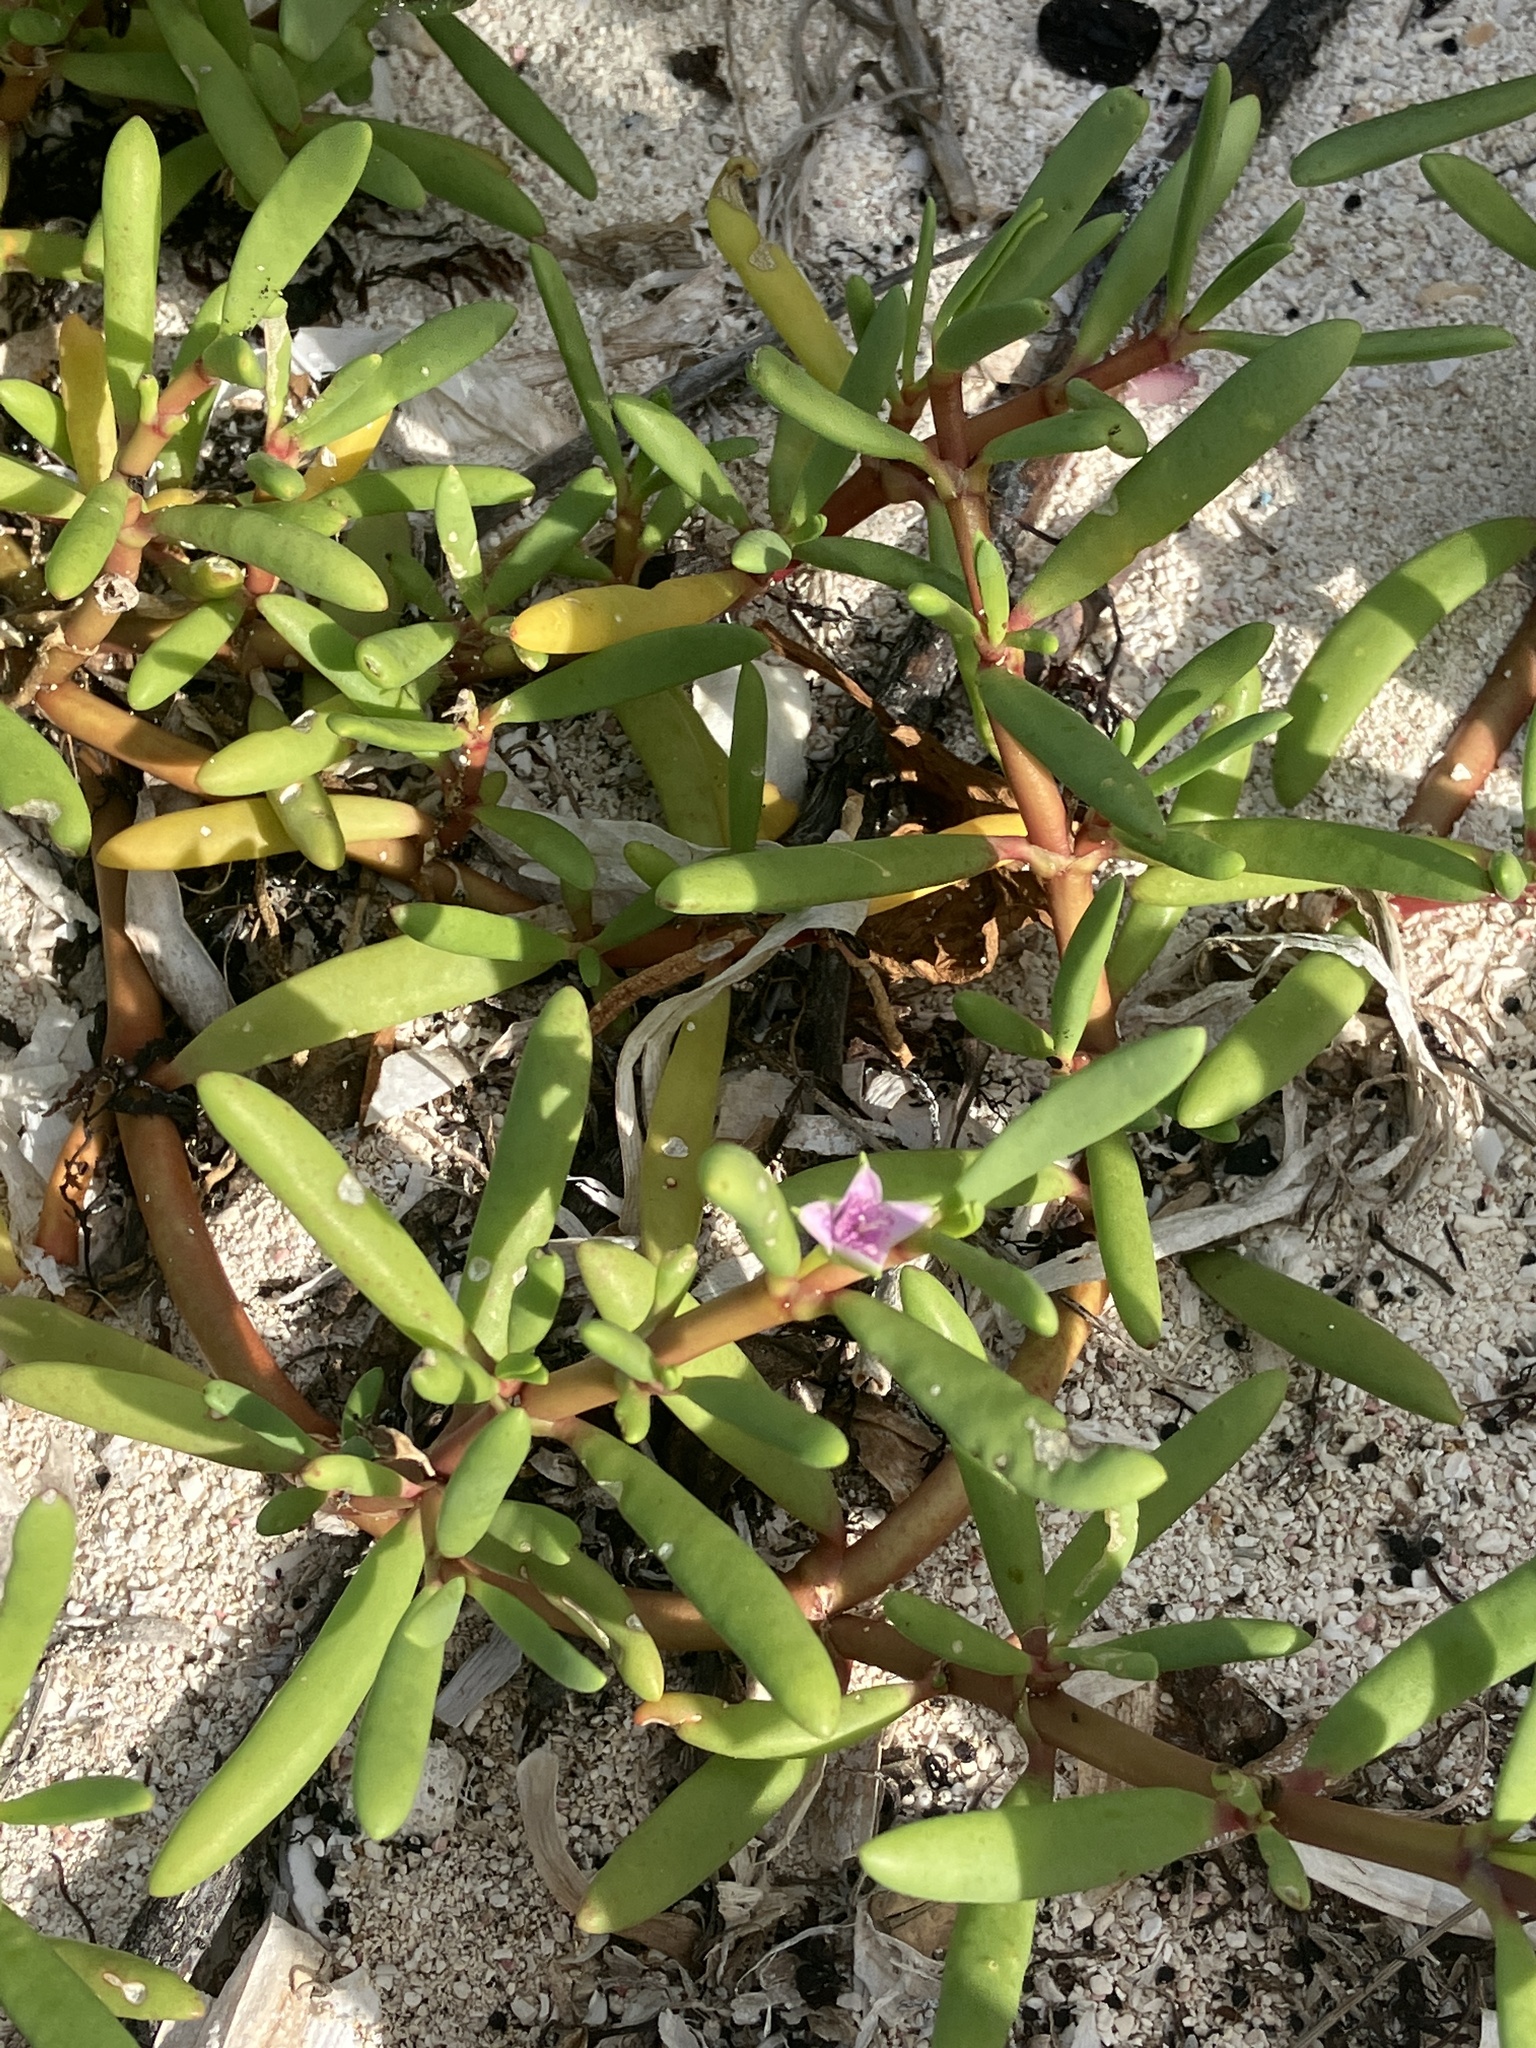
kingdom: Plantae
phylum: Tracheophyta
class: Magnoliopsida
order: Caryophyllales
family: Aizoaceae
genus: Sesuvium
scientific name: Sesuvium portulacastrum
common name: Sea-purslane
